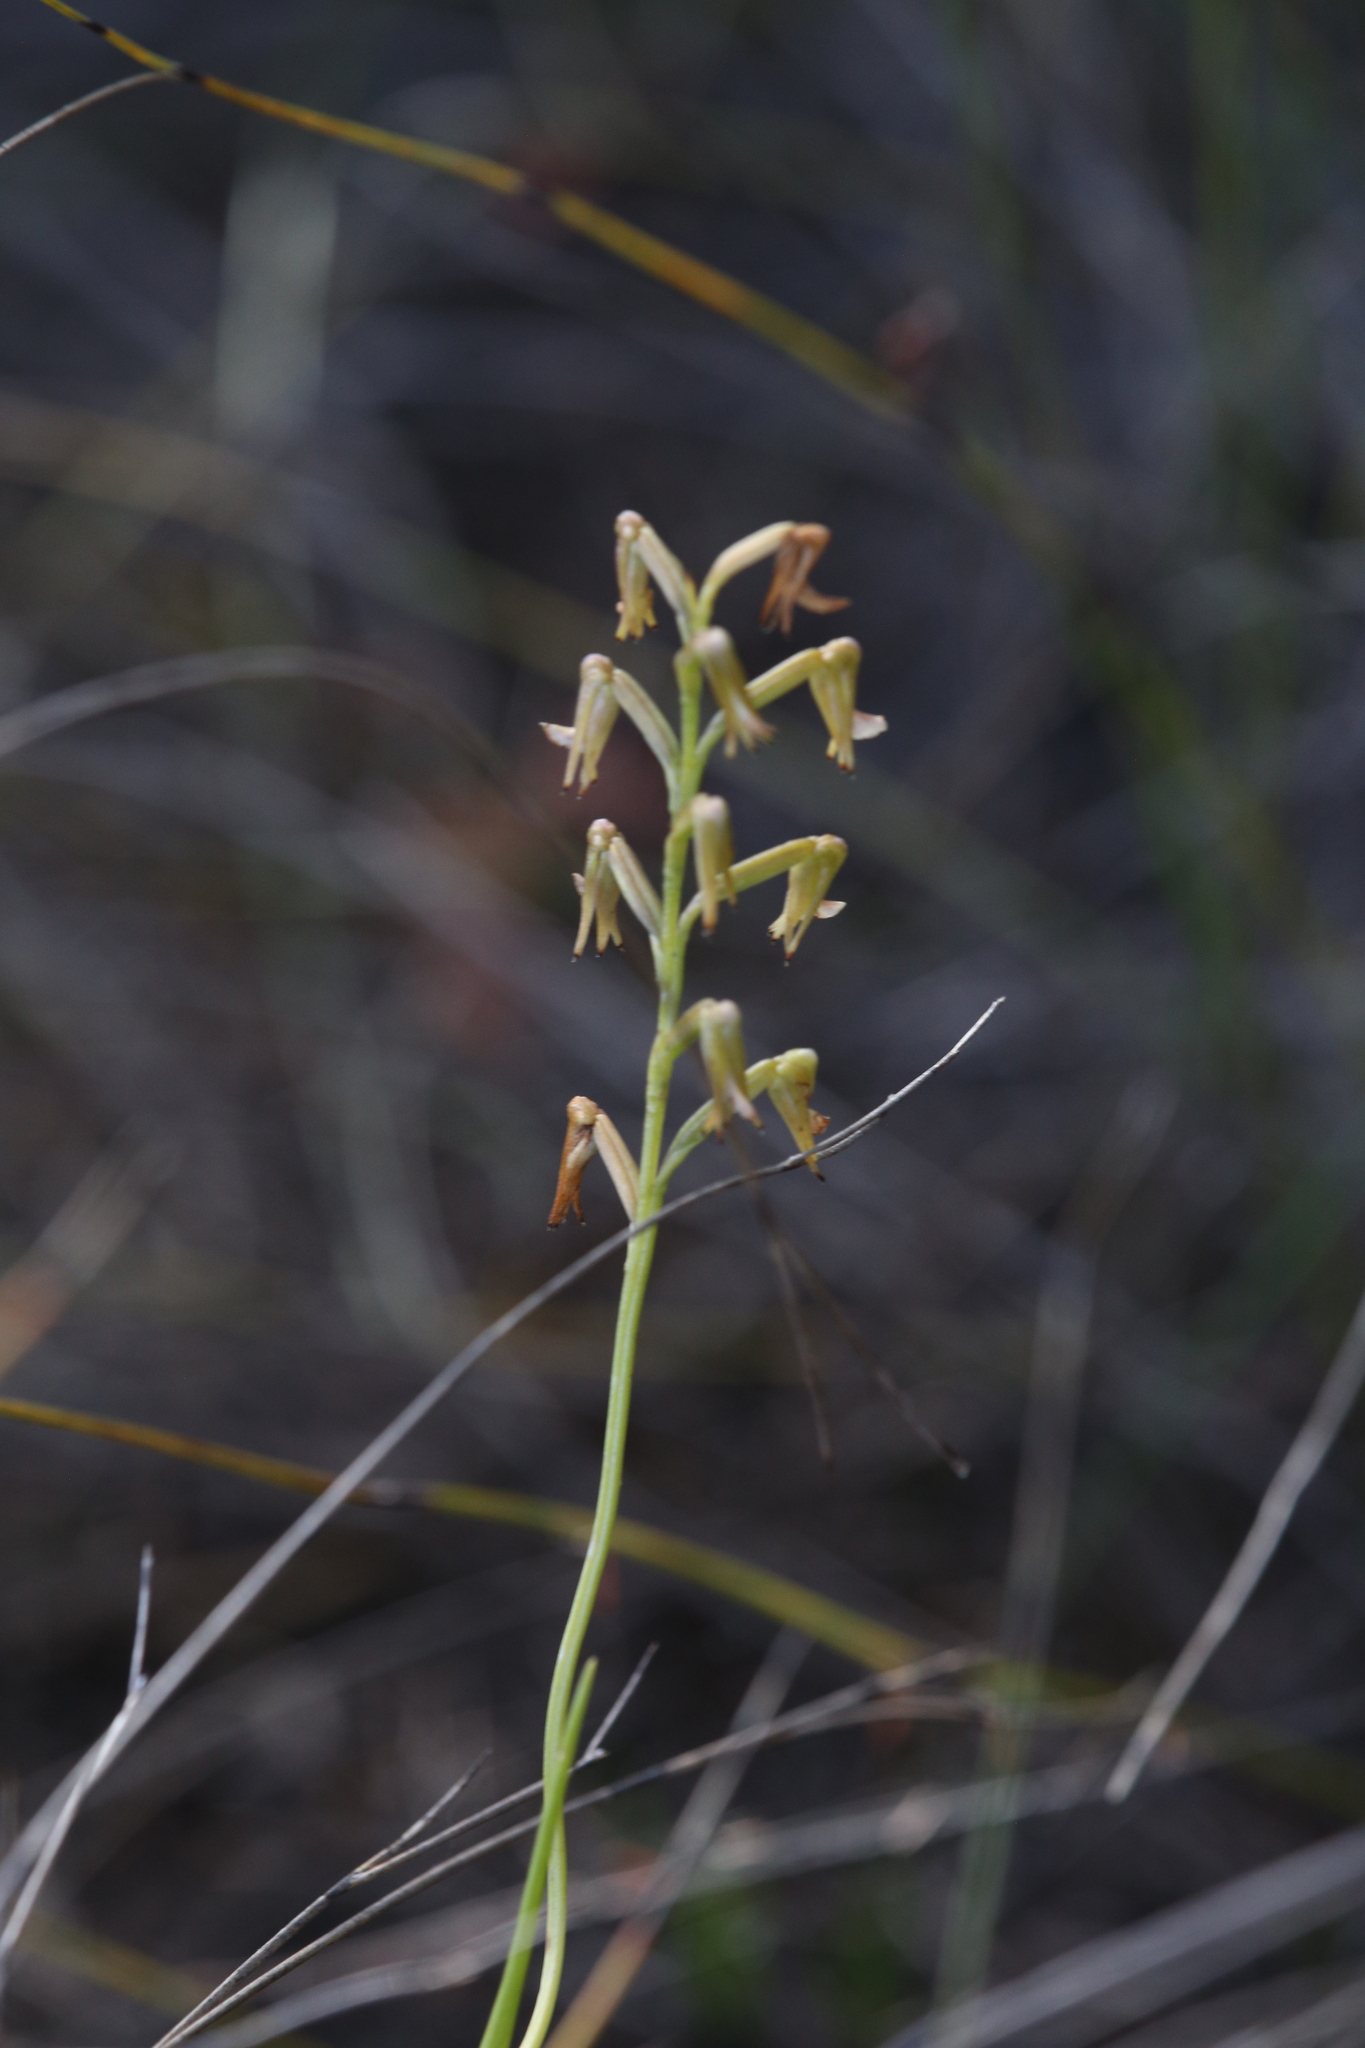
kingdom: Plantae
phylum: Tracheophyta
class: Liliopsida
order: Asparagales
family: Orchidaceae
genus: Prasophyllum
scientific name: Prasophyllum parvifolium
